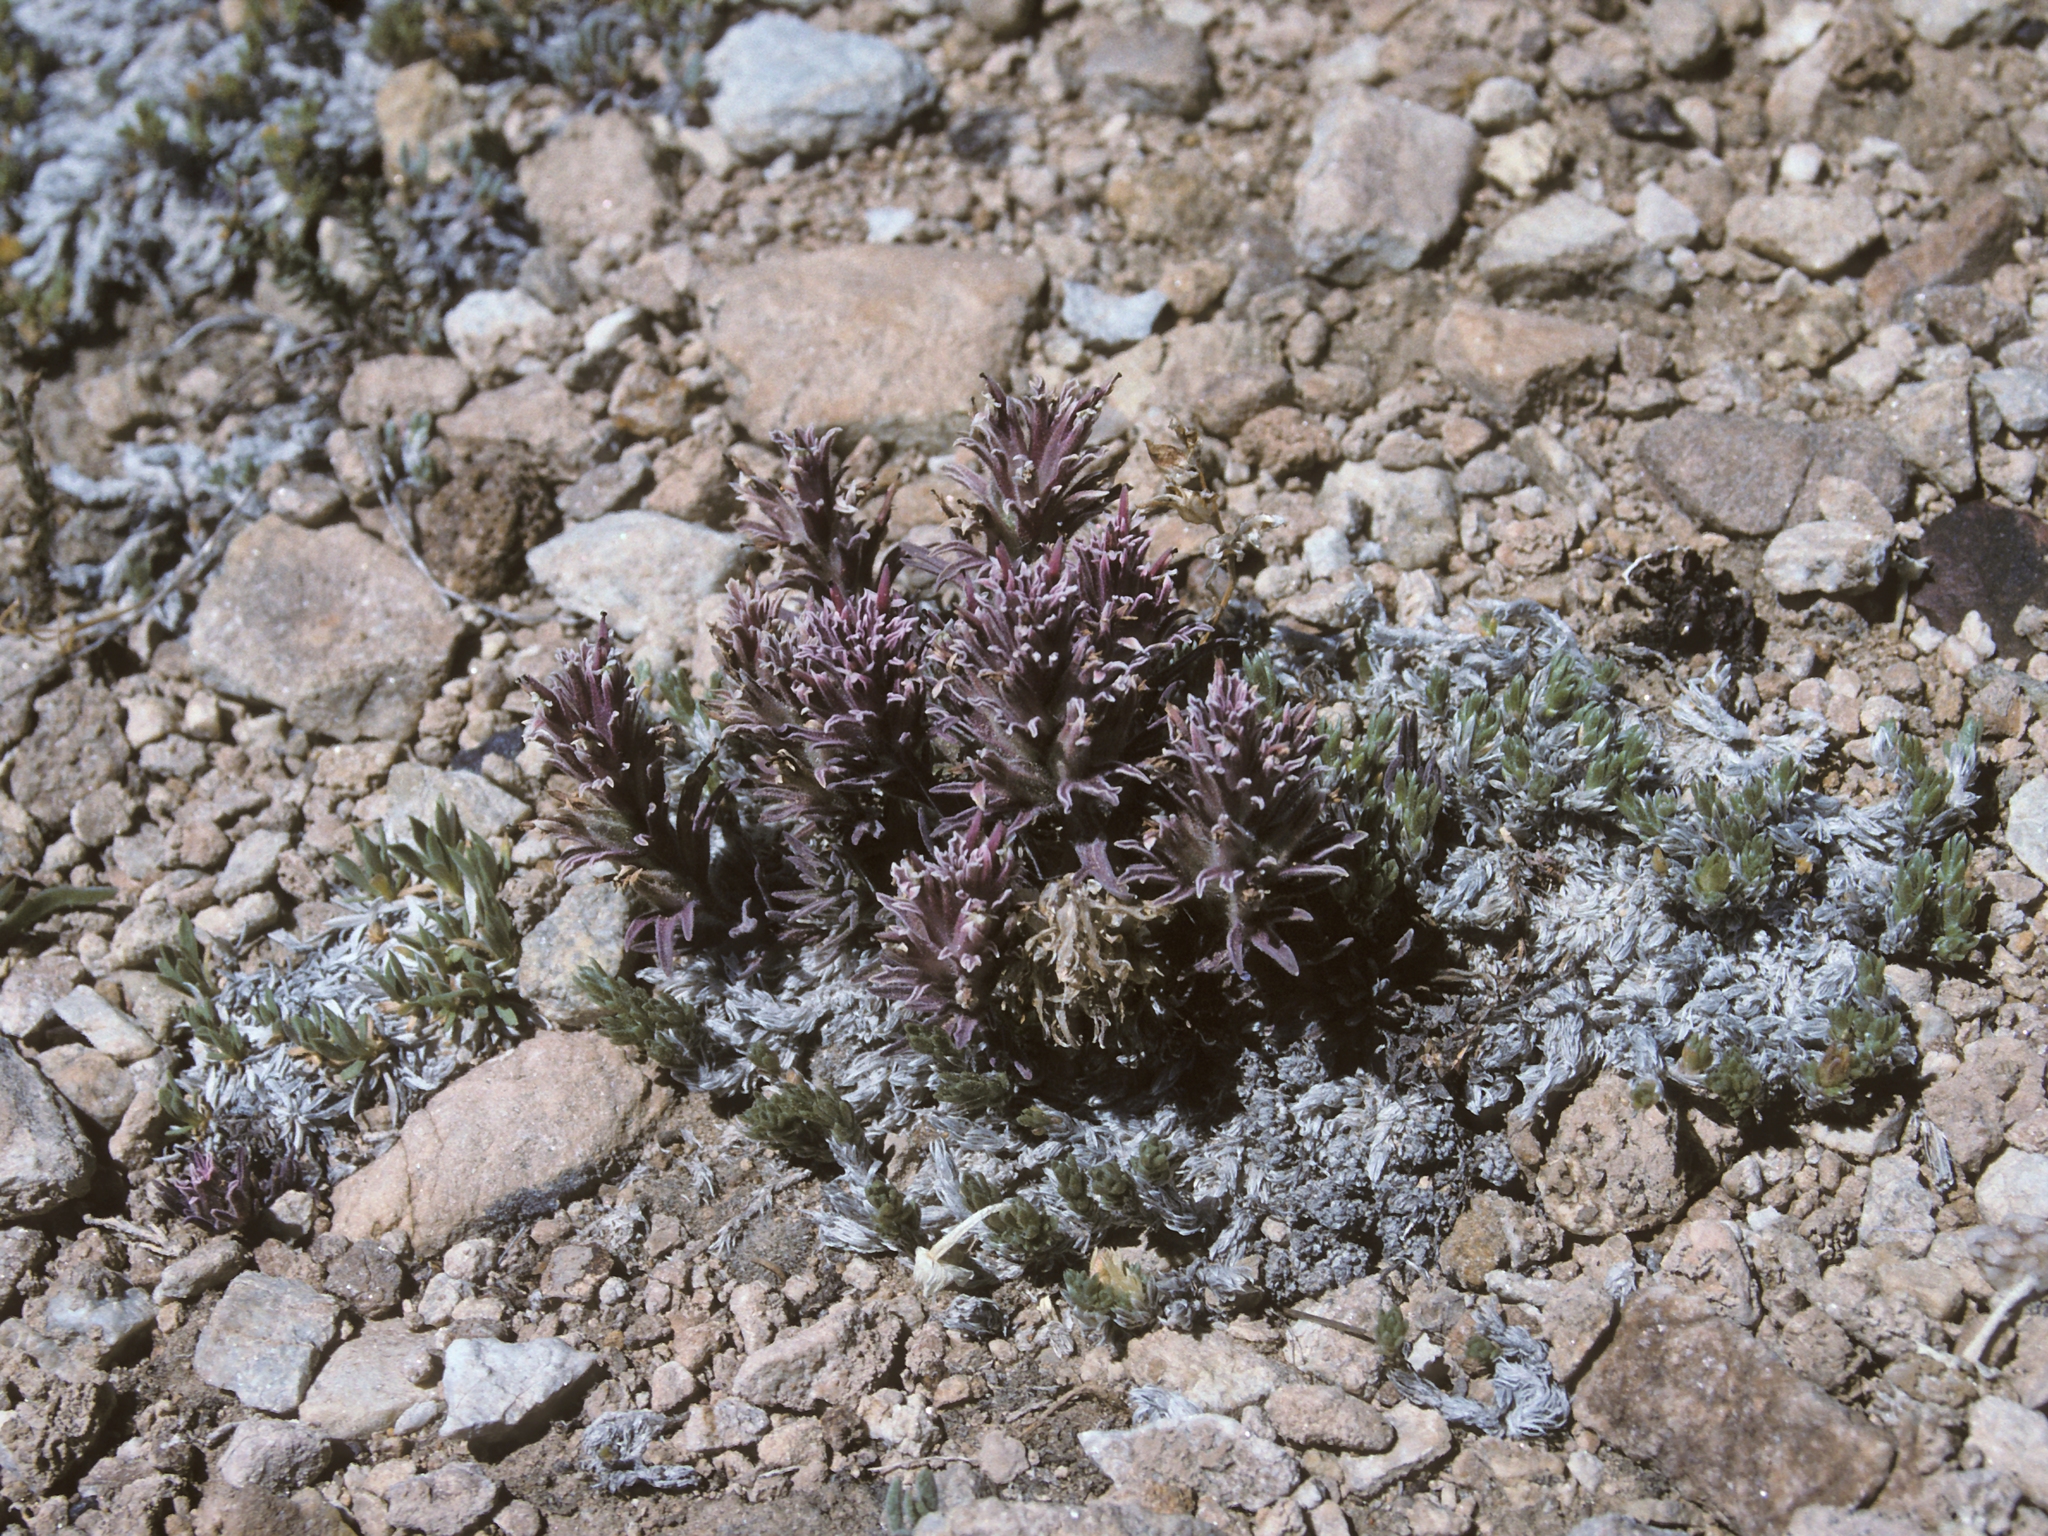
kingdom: Plantae
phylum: Tracheophyta
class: Magnoliopsida
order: Lamiales
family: Orobanchaceae
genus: Castilleja
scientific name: Castilleja nana
